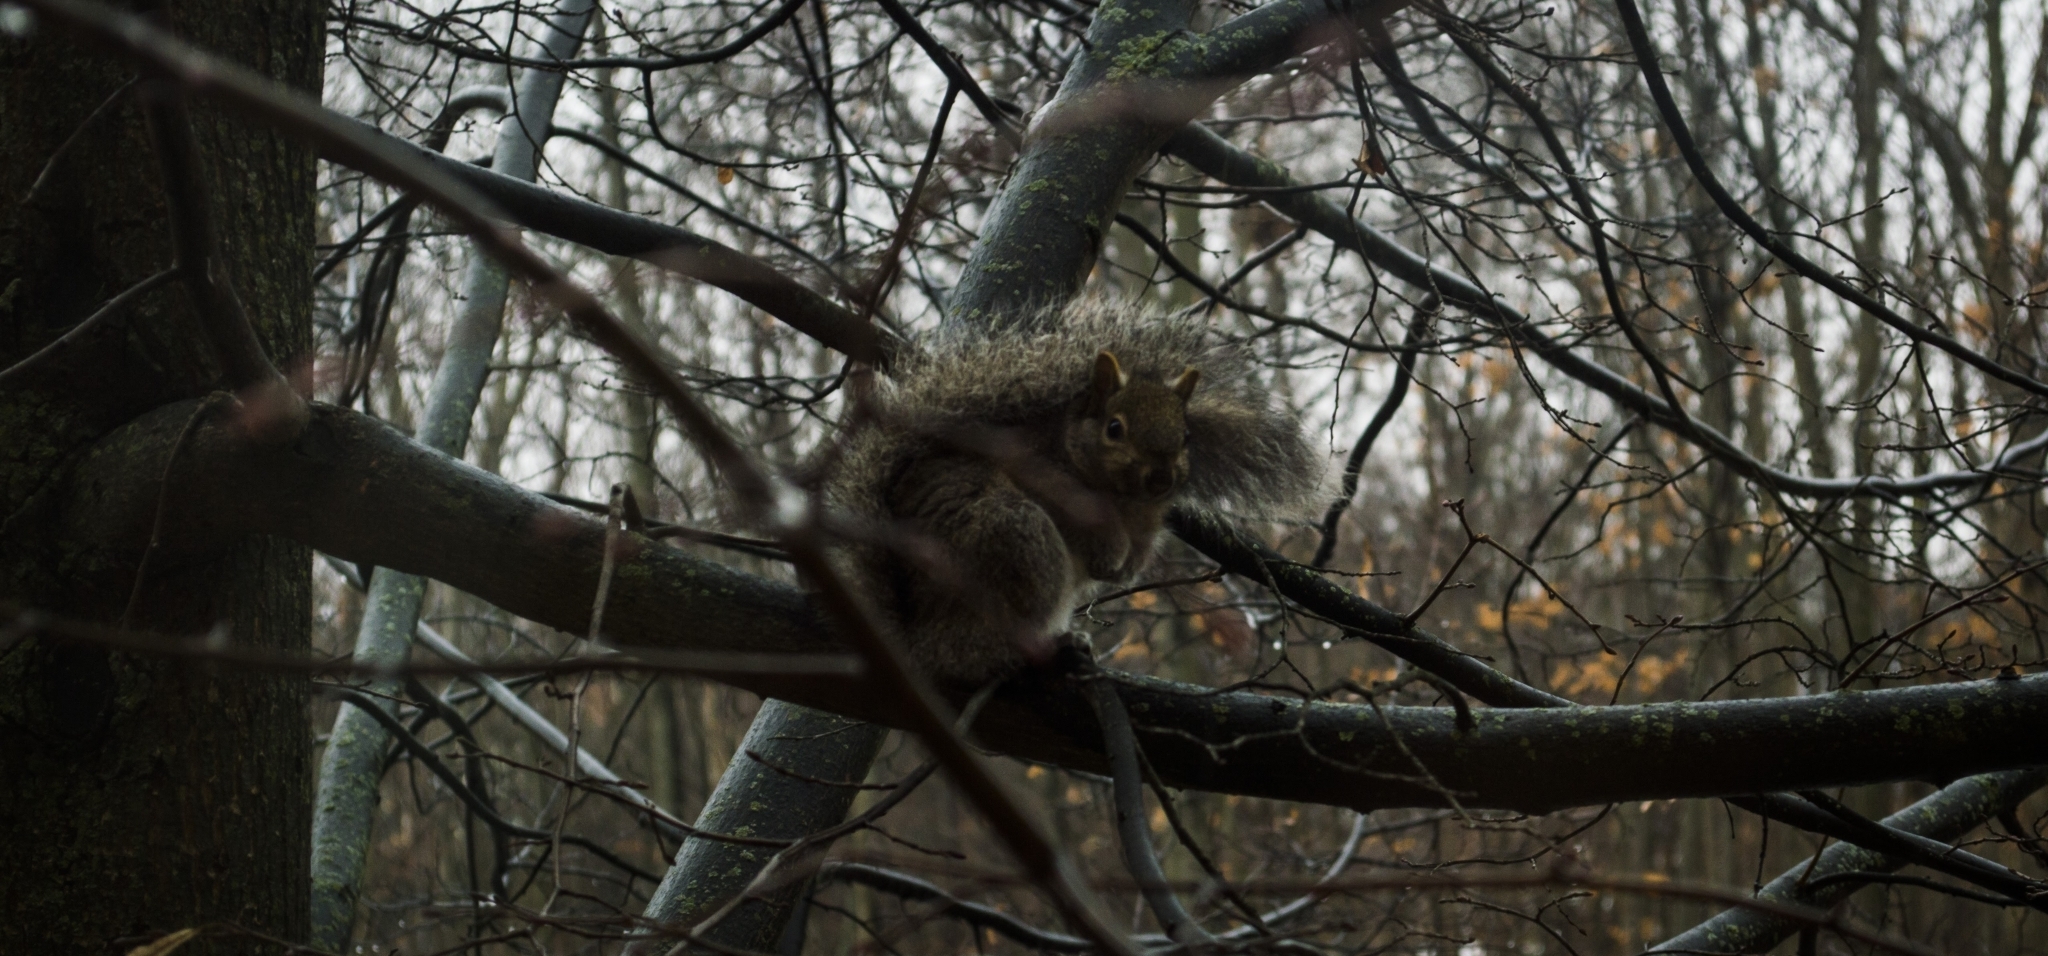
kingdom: Animalia
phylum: Chordata
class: Mammalia
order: Rodentia
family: Sciuridae
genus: Sciurus
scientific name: Sciurus carolinensis
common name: Eastern gray squirrel
